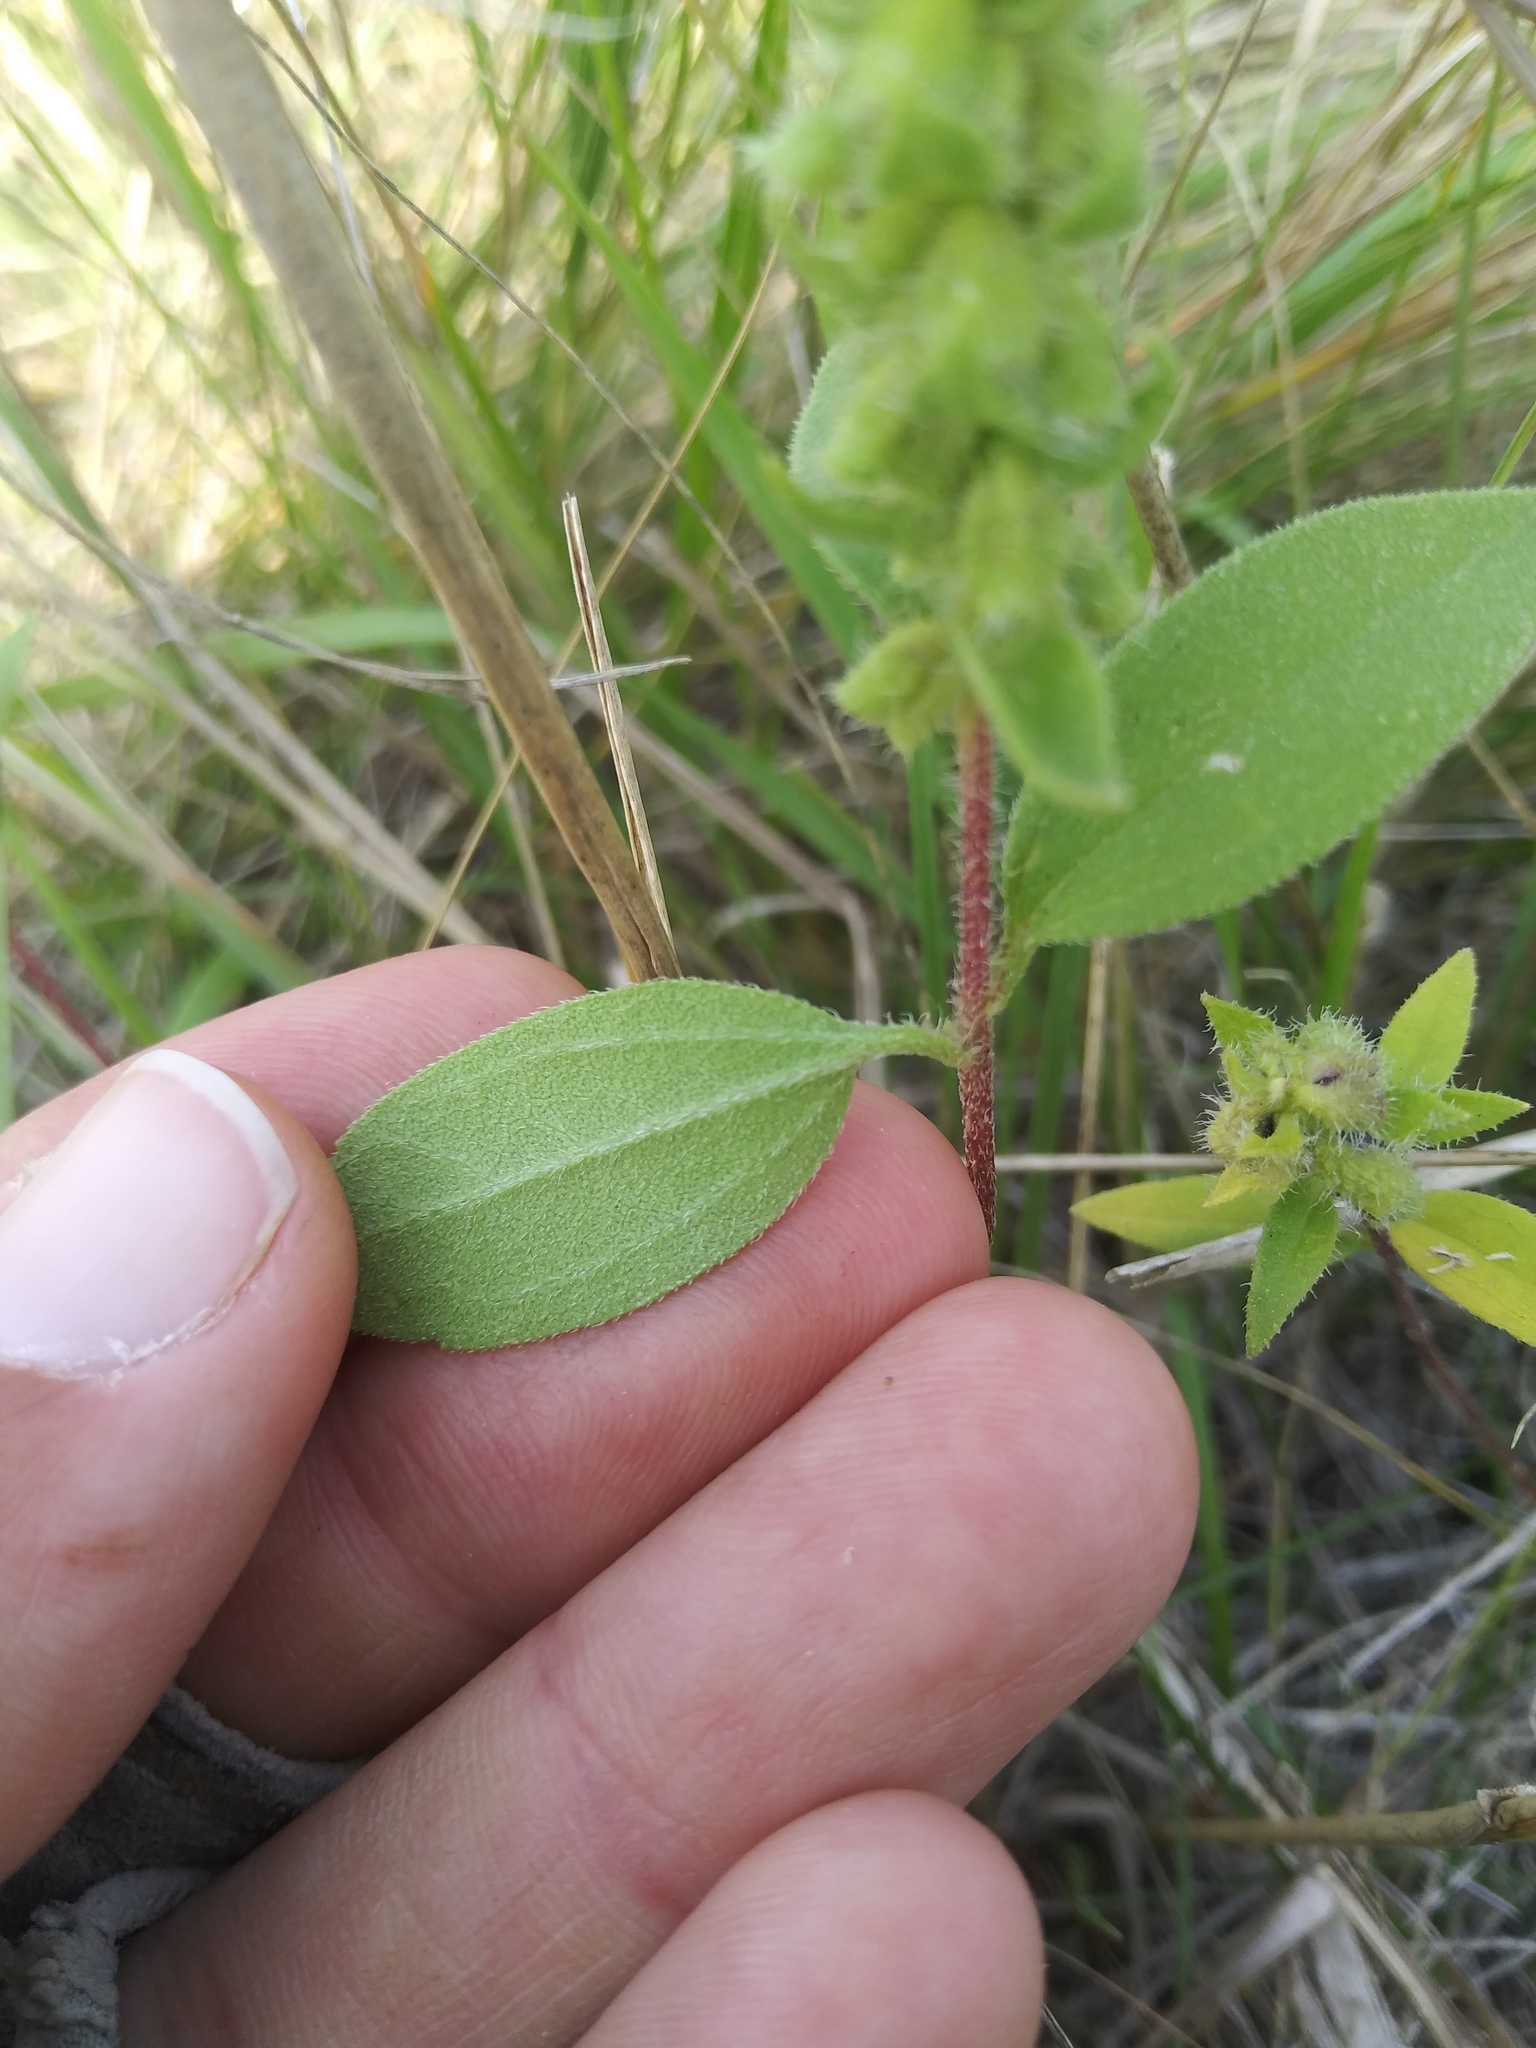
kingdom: Plantae
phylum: Tracheophyta
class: Magnoliopsida
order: Asterales
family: Asteraceae
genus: Iva
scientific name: Iva annua
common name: Marsh-elder
